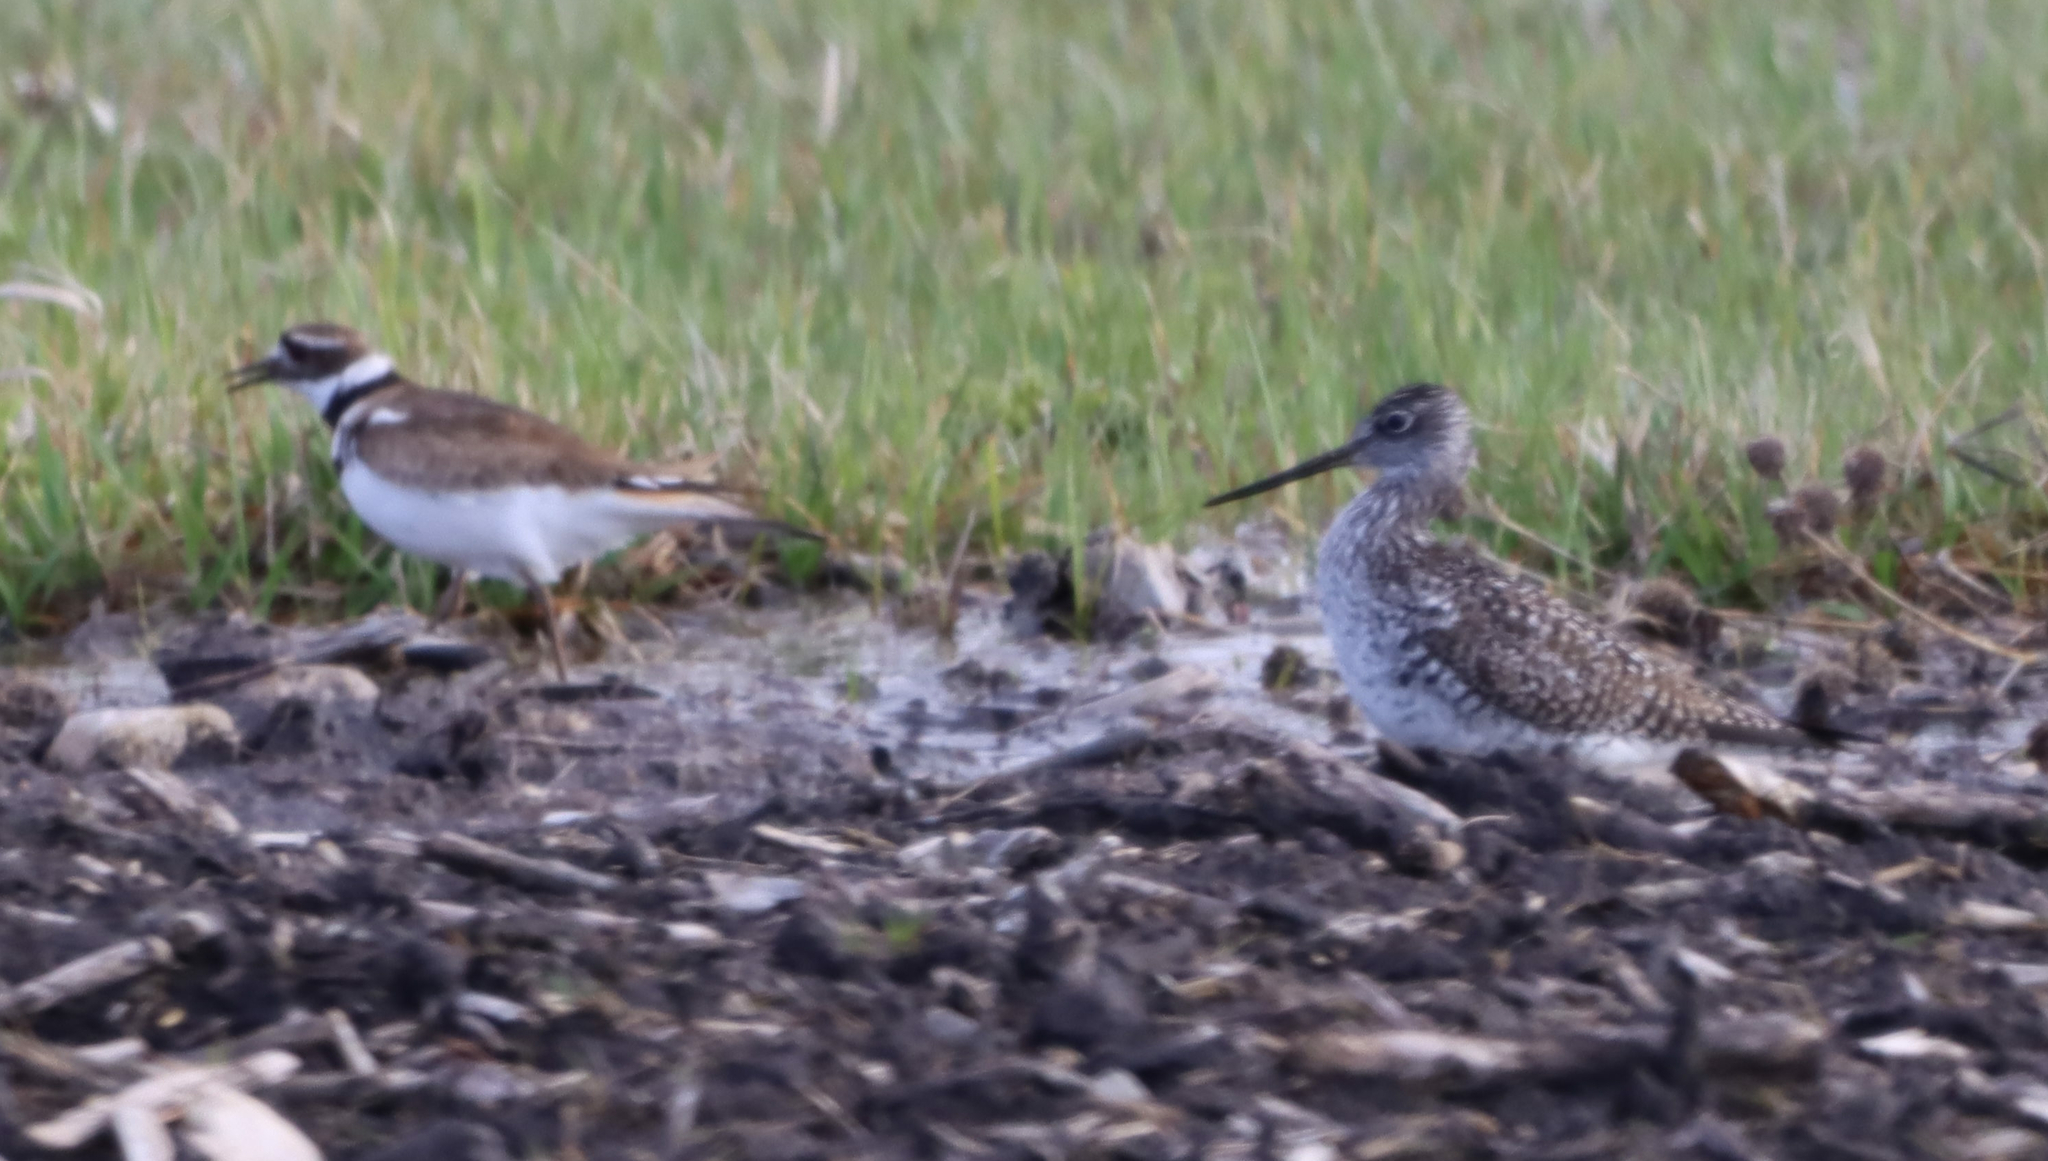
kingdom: Animalia
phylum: Chordata
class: Aves
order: Charadriiformes
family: Scolopacidae
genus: Tringa
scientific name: Tringa melanoleuca
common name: Greater yellowlegs
